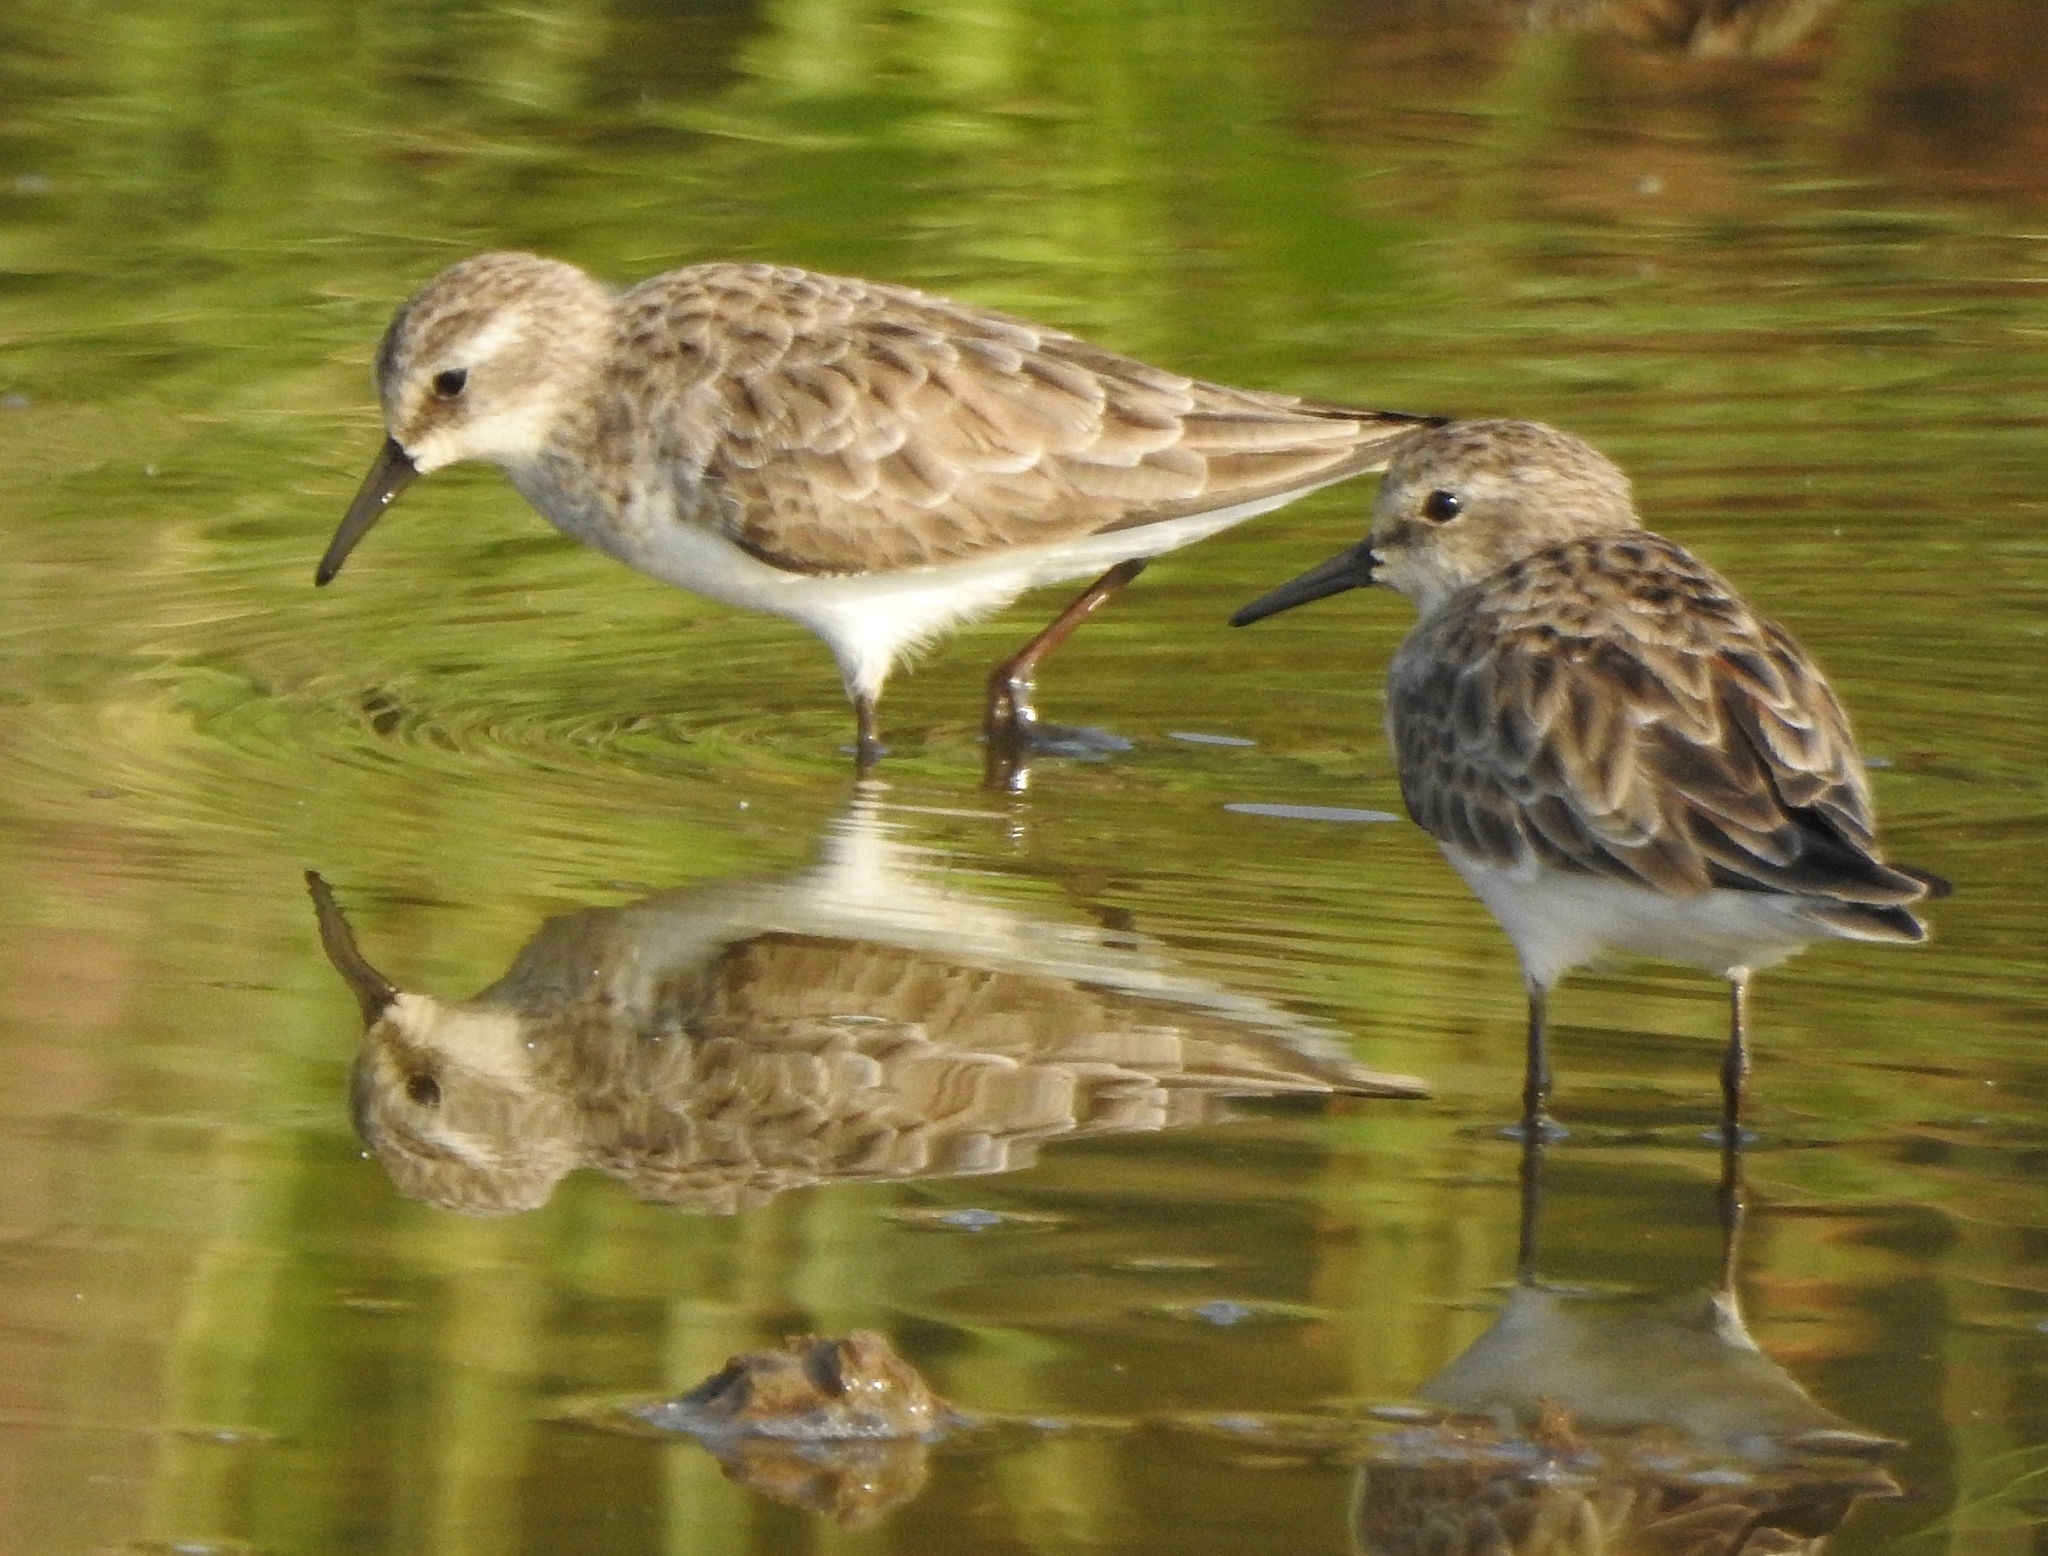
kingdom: Animalia
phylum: Chordata
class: Aves
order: Charadriiformes
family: Scolopacidae
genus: Calidris
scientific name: Calidris minuta
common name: Little stint
